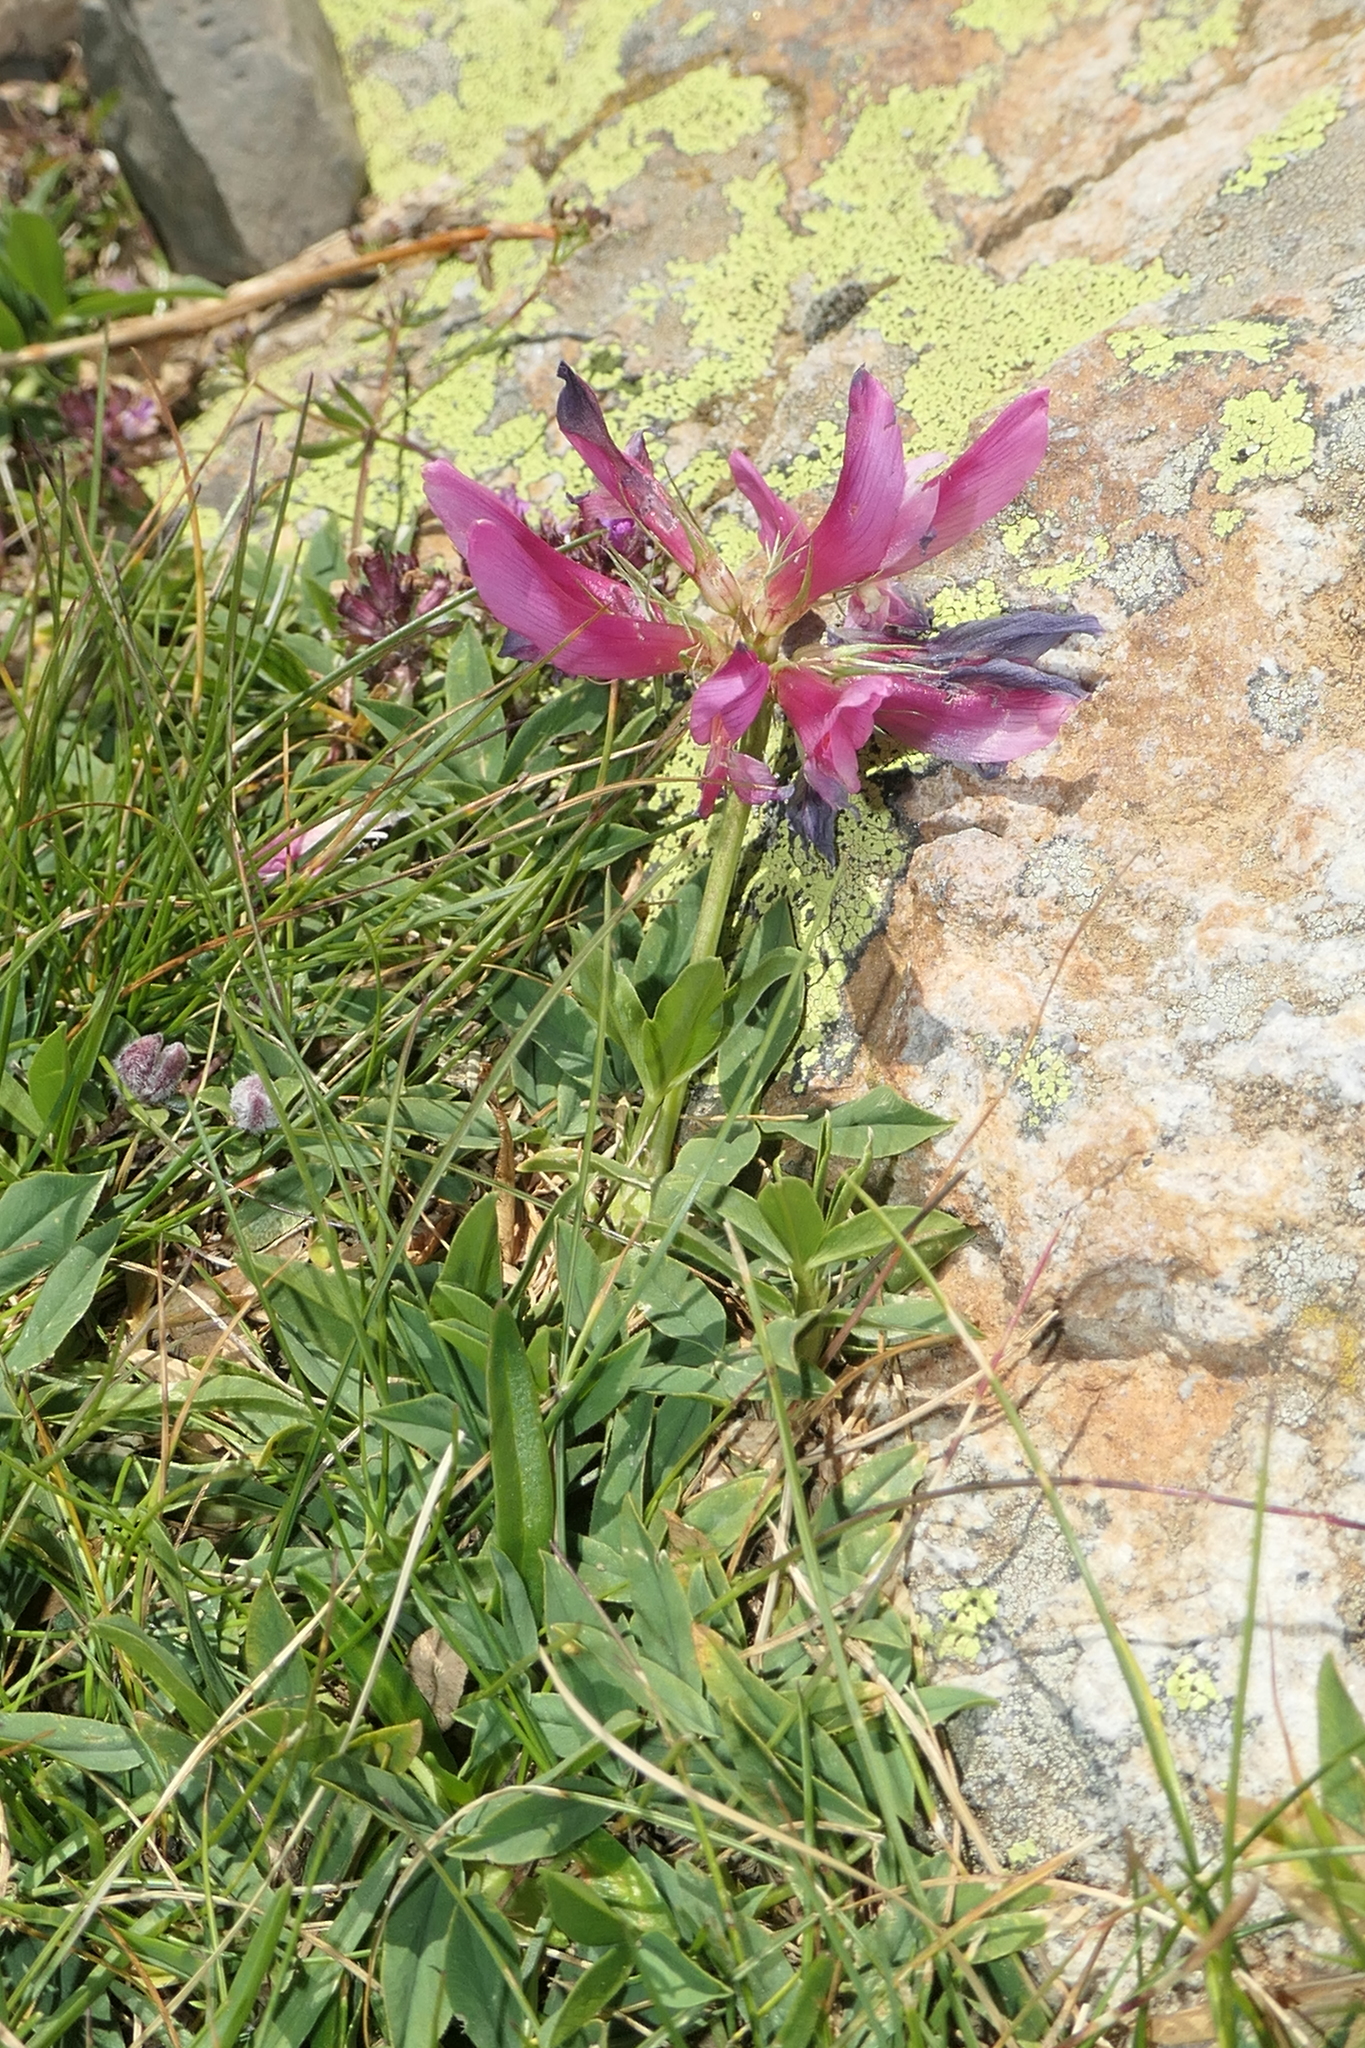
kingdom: Plantae
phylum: Tracheophyta
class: Magnoliopsida
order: Fabales
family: Fabaceae
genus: Trifolium
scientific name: Trifolium alpinum
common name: Alpine clover
